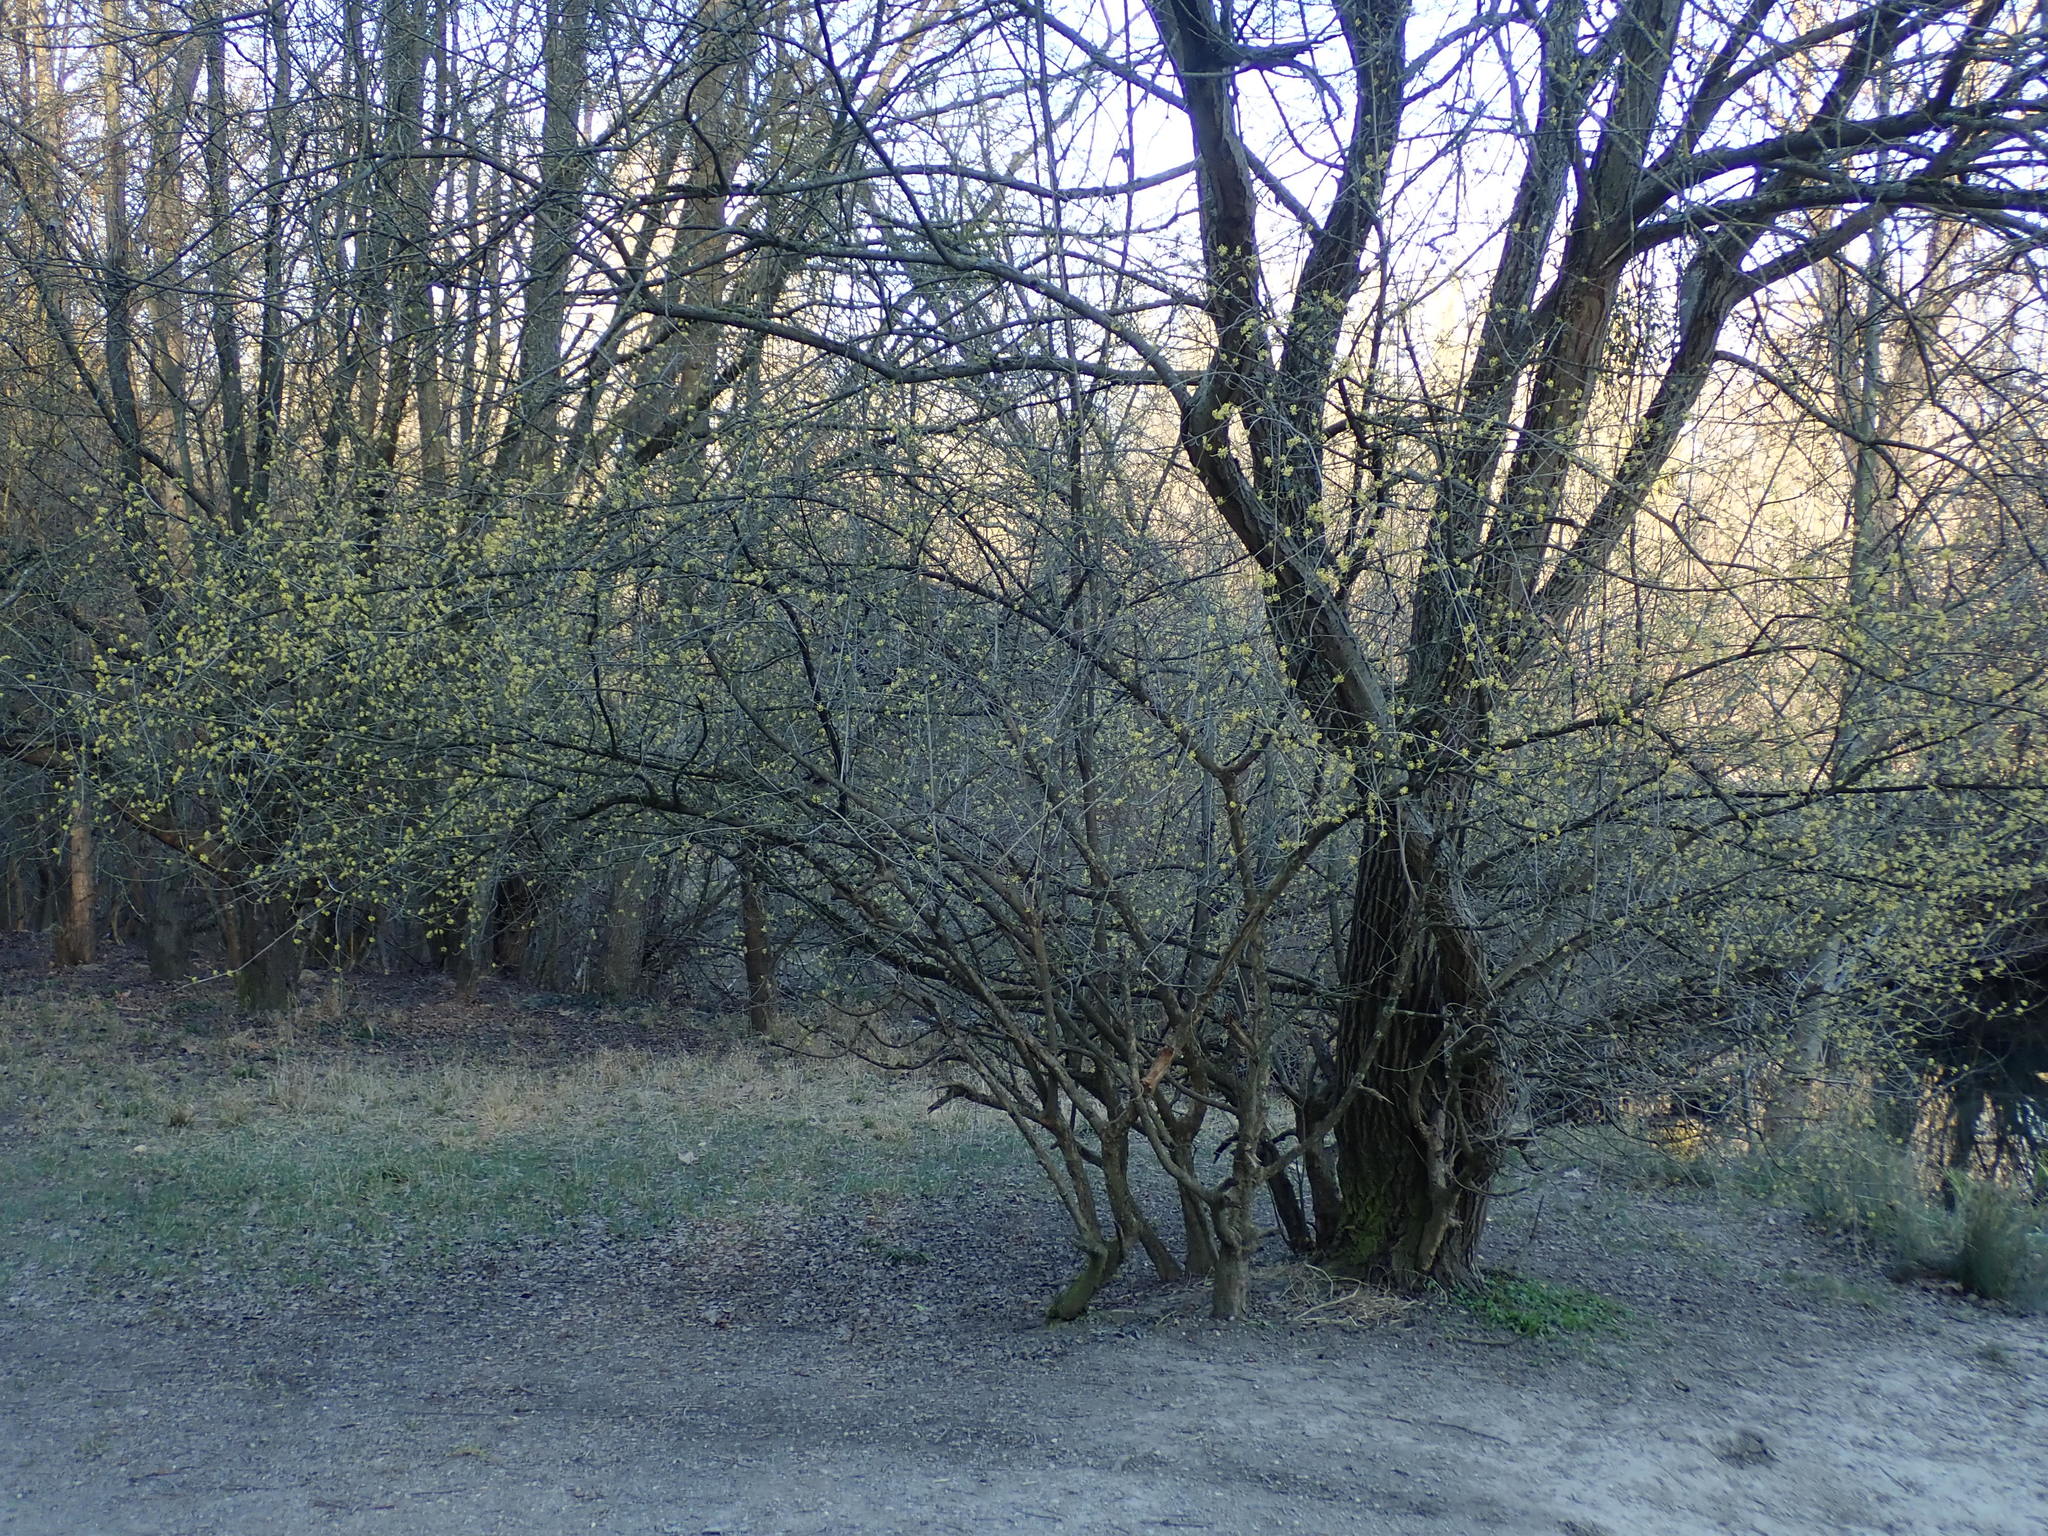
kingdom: Plantae
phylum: Tracheophyta
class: Magnoliopsida
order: Cornales
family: Cornaceae
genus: Cornus
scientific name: Cornus mas
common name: Cornelian-cherry
